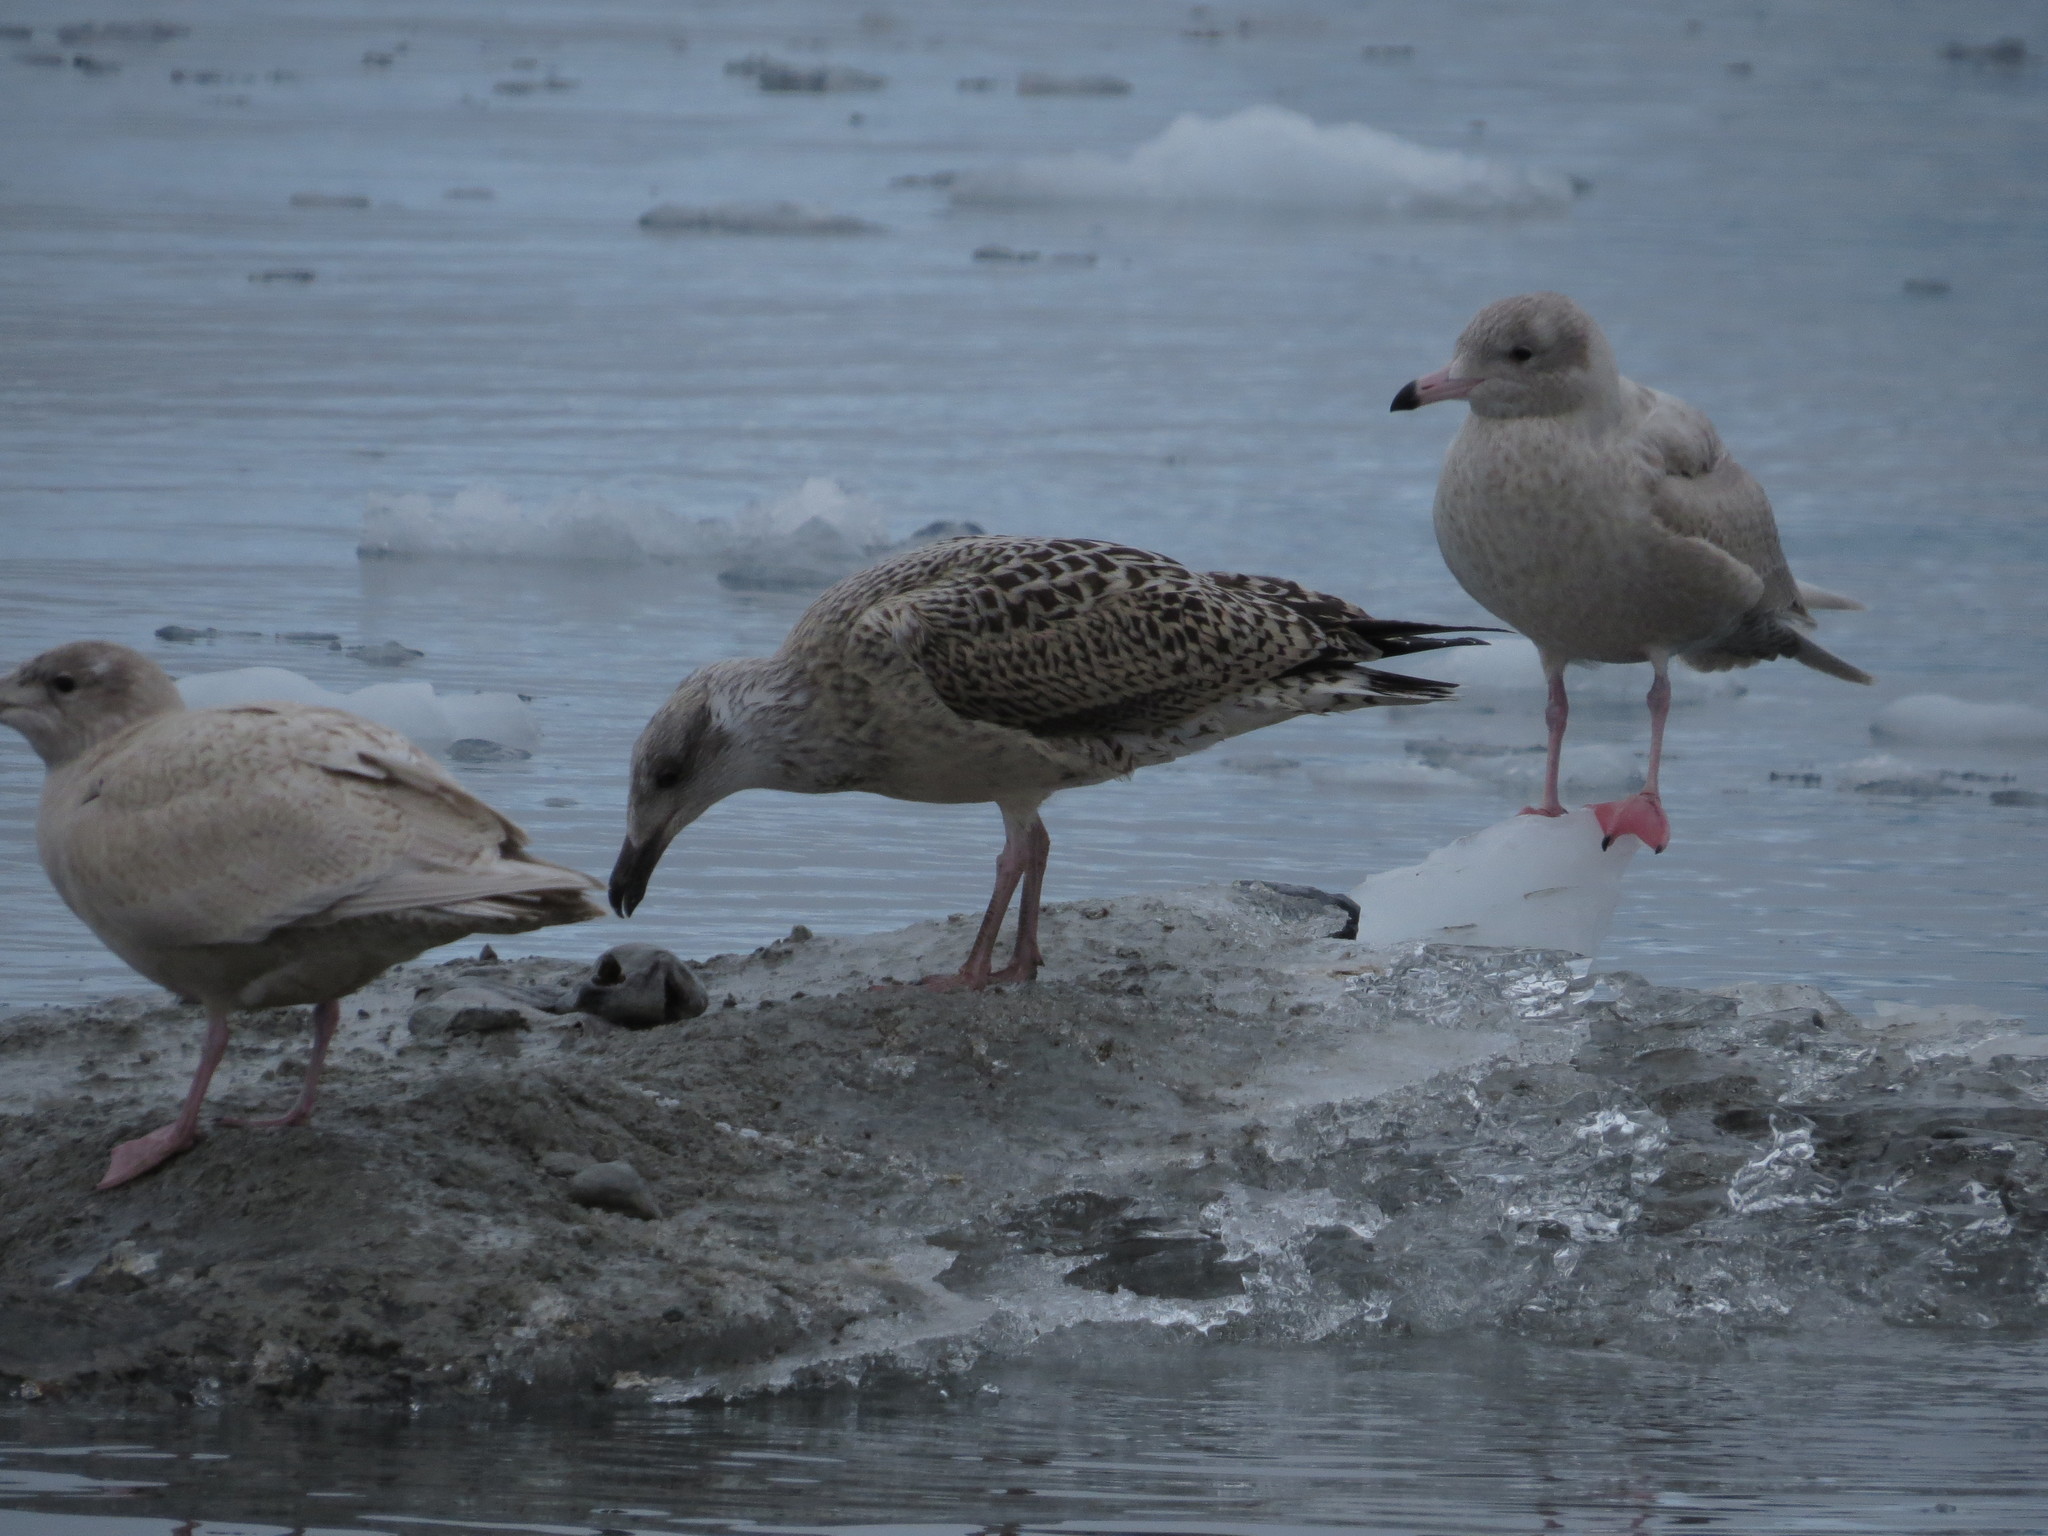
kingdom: Animalia
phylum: Chordata
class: Aves
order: Charadriiformes
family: Laridae
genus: Larus
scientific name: Larus marinus
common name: Great black-backed gull
